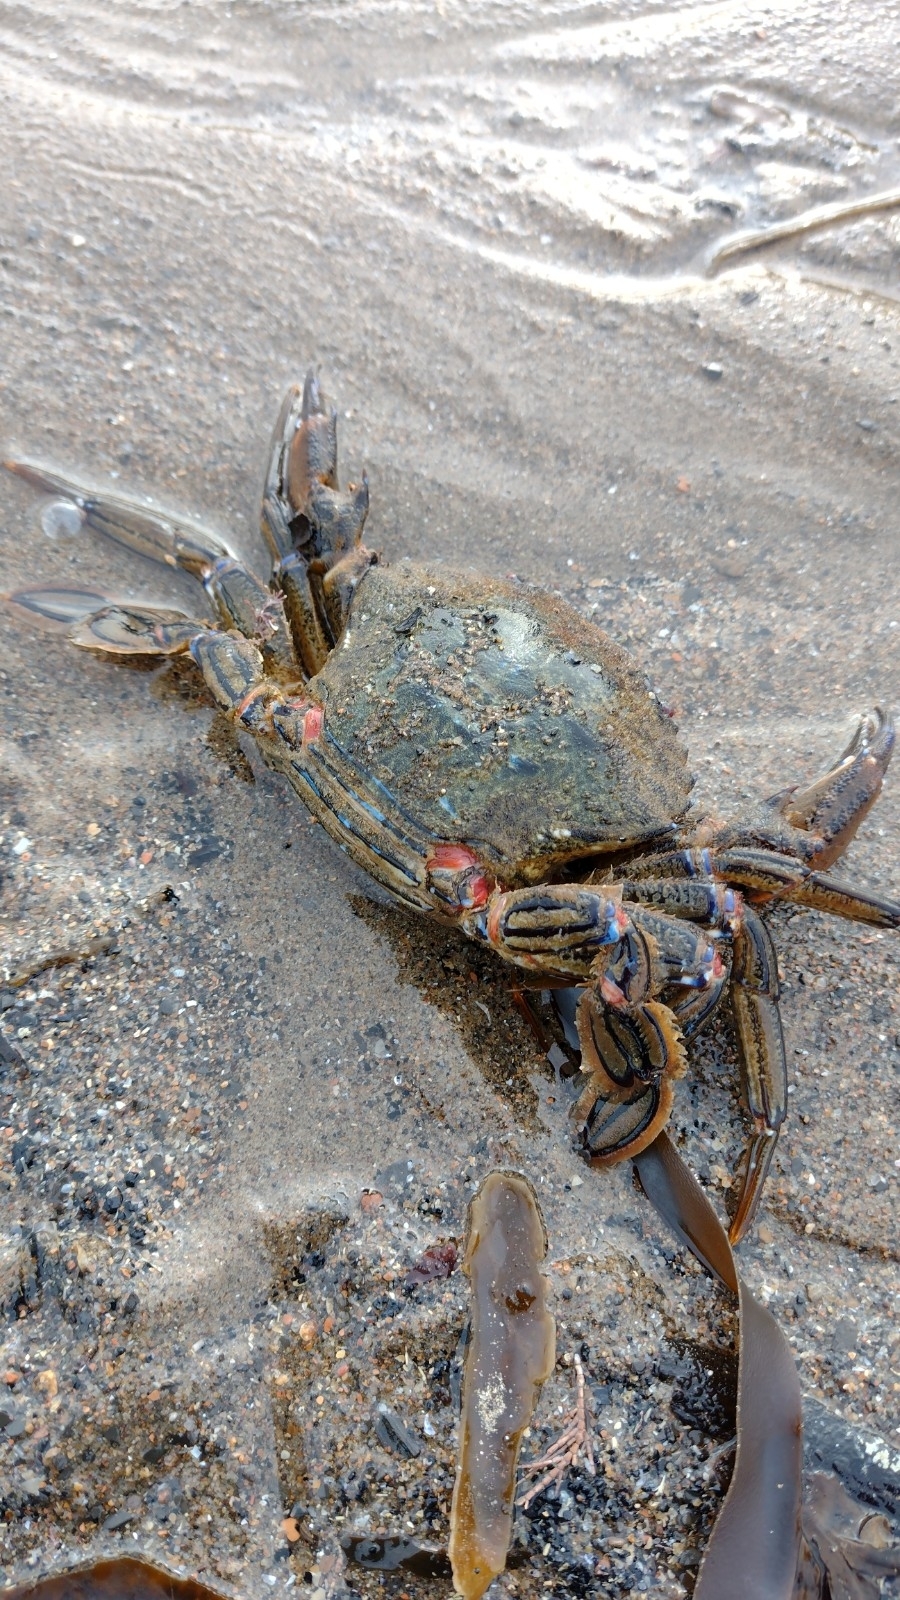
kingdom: Animalia
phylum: Arthropoda
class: Malacostraca
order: Decapoda
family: Polybiidae
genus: Necora
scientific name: Necora puber
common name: Velvet swimming crab
